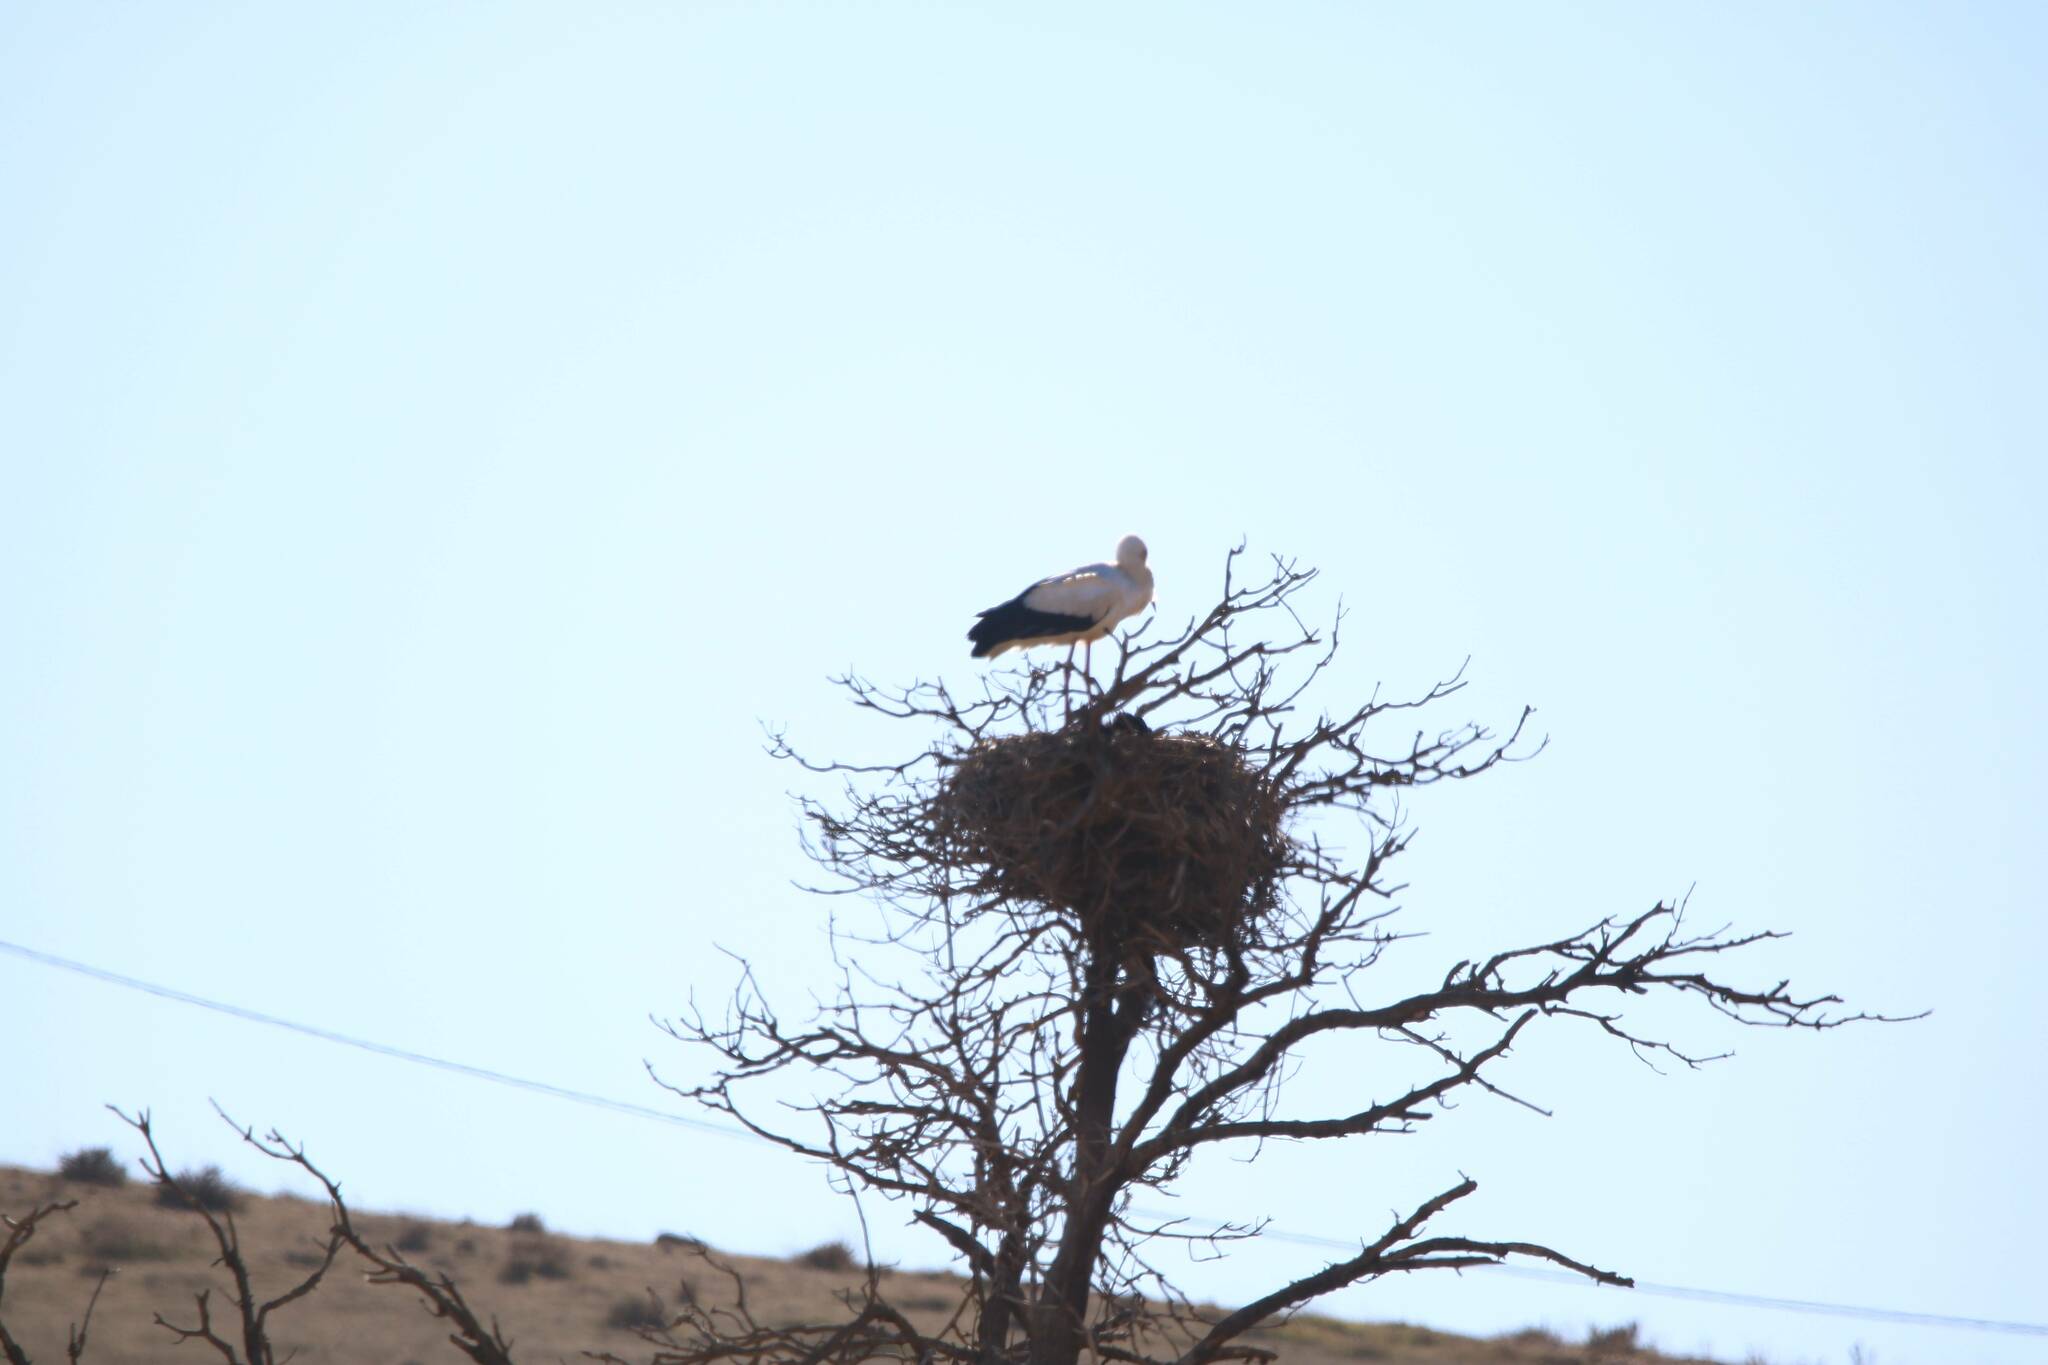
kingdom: Animalia
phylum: Chordata
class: Aves
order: Ciconiiformes
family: Ciconiidae
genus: Ciconia
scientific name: Ciconia ciconia
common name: White stork
